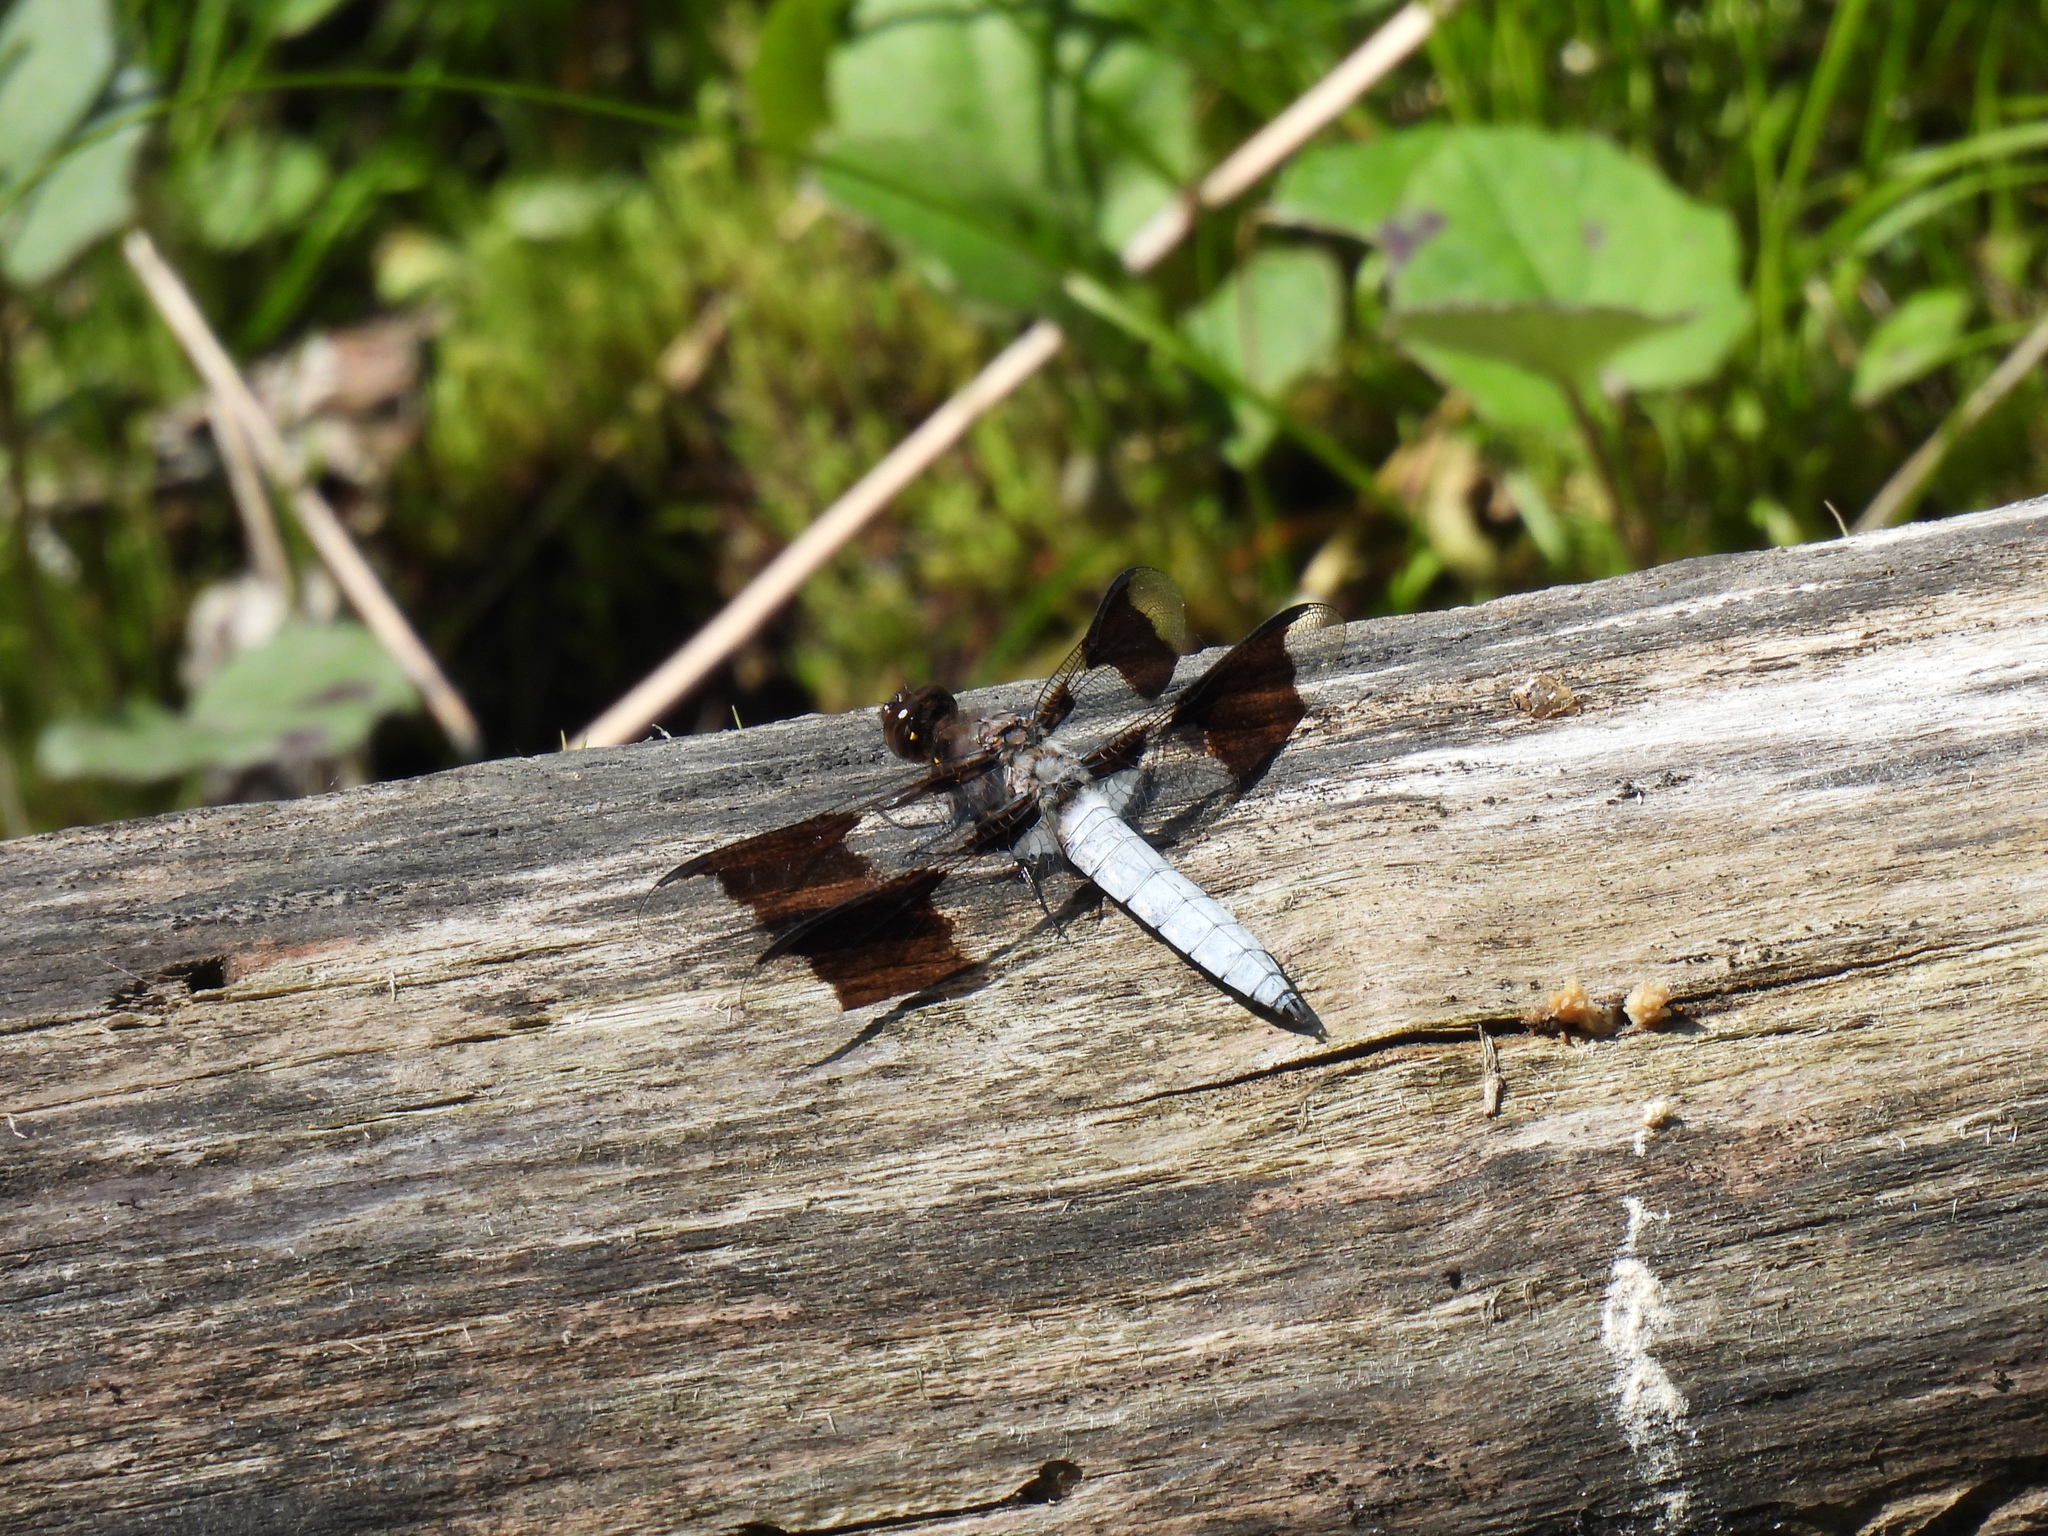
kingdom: Animalia
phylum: Arthropoda
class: Insecta
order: Odonata
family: Libellulidae
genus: Plathemis
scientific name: Plathemis lydia
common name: Common whitetail
